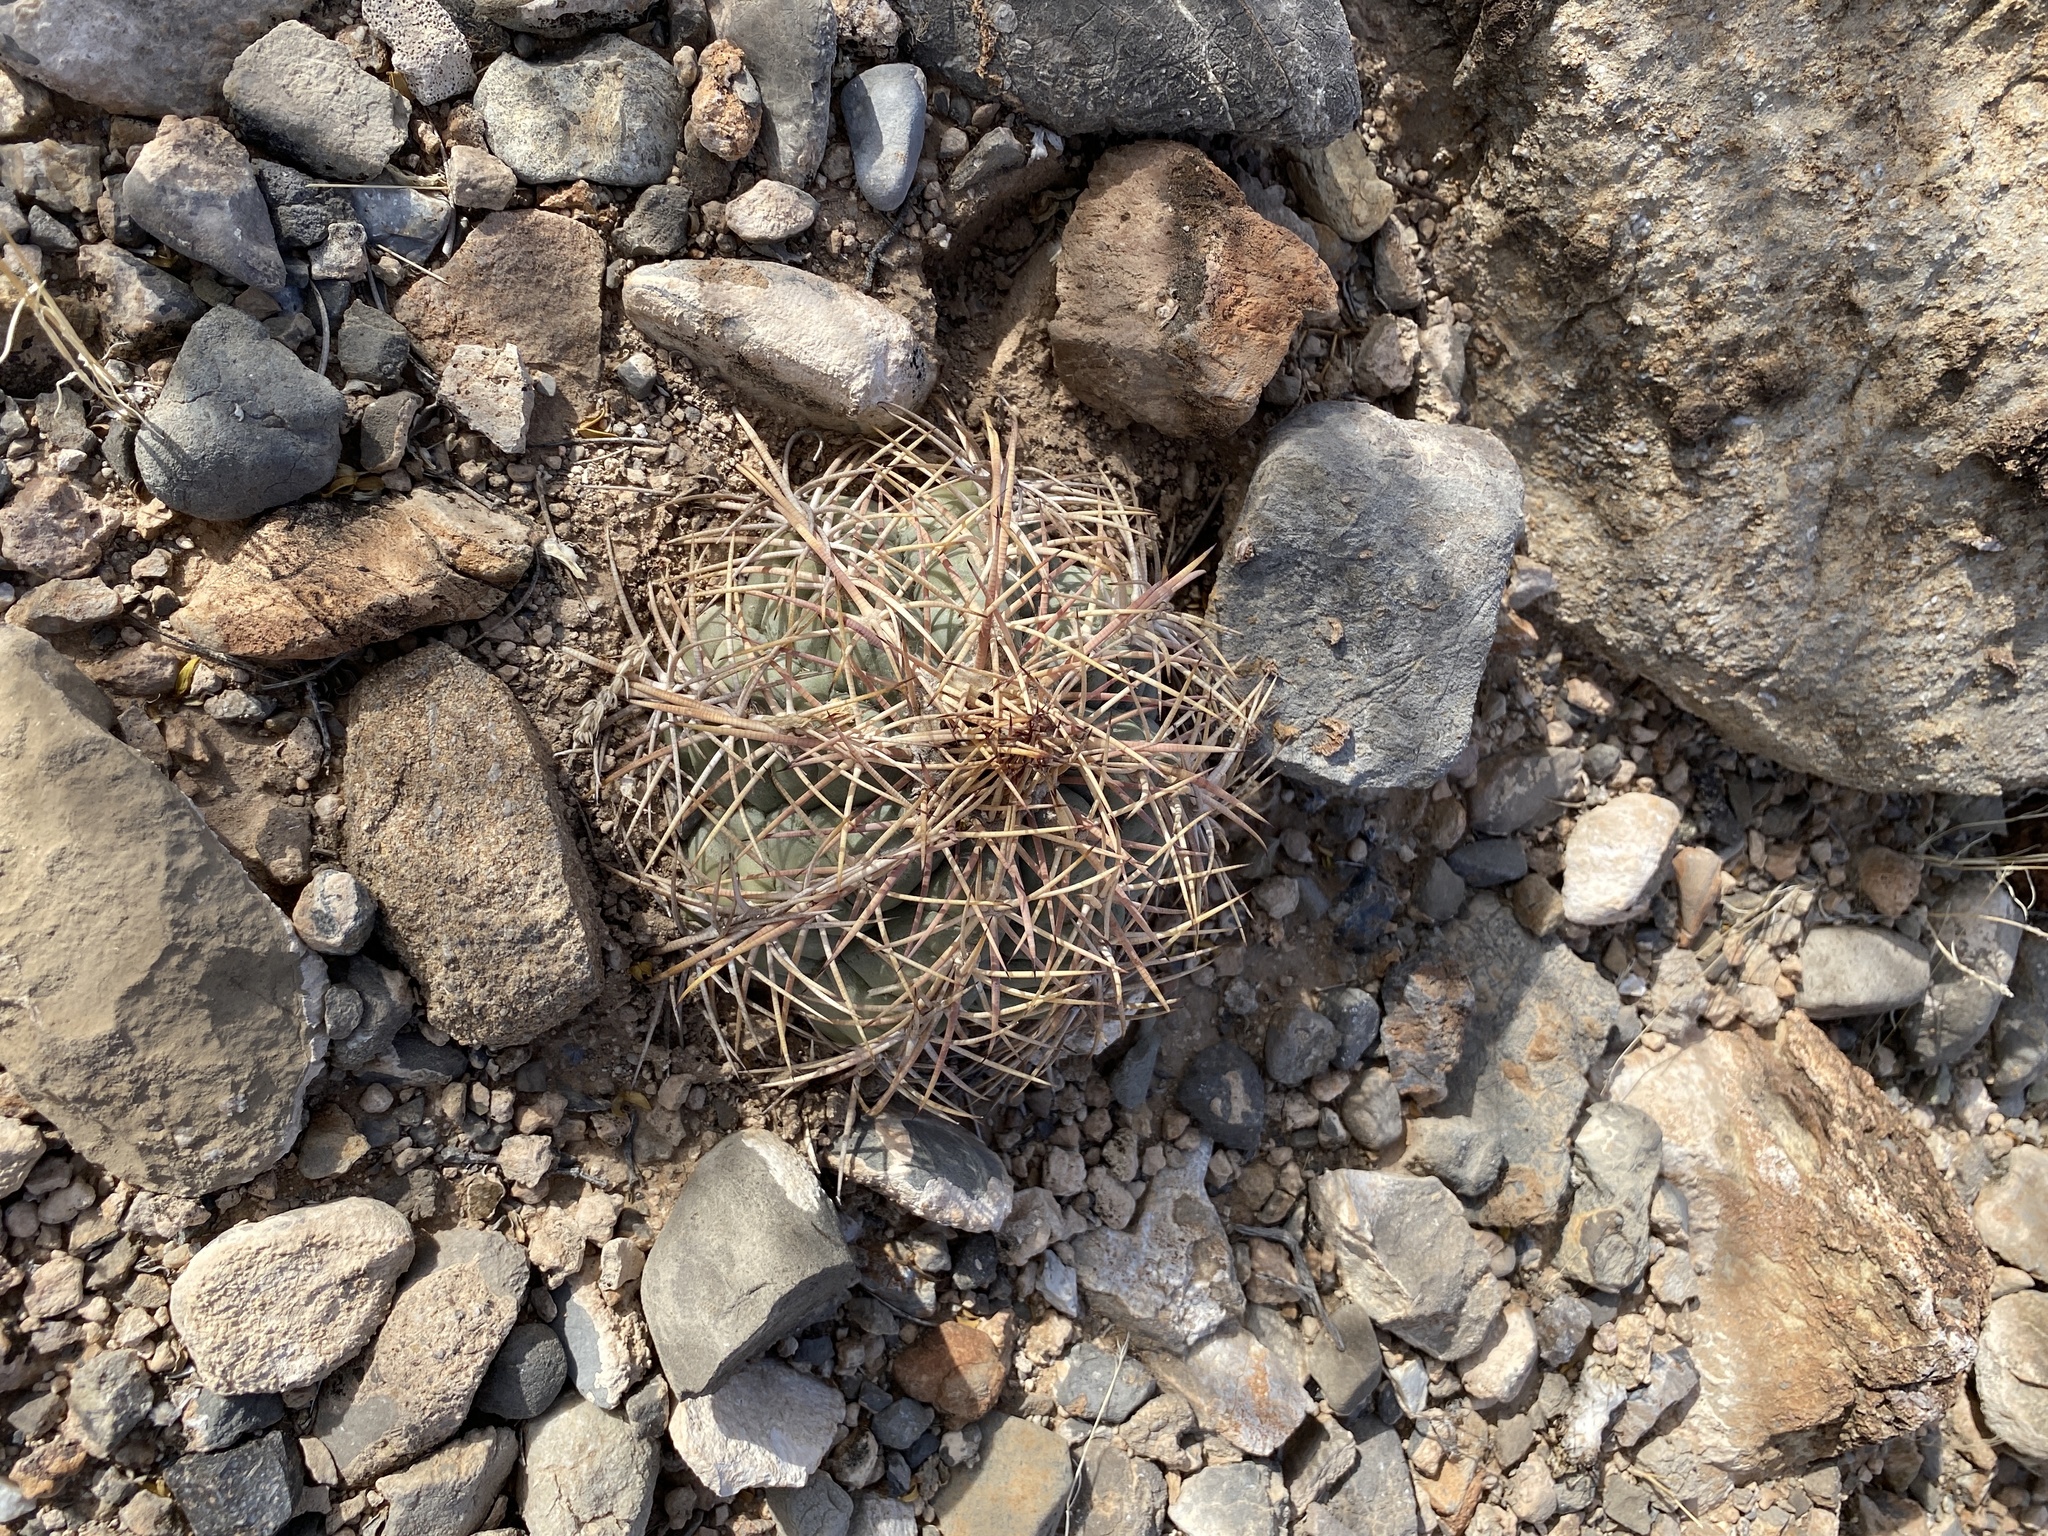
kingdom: Plantae
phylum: Tracheophyta
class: Magnoliopsida
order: Caryophyllales
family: Cactaceae
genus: Echinocactus
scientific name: Echinocactus horizonthalonius
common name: Devilshead
